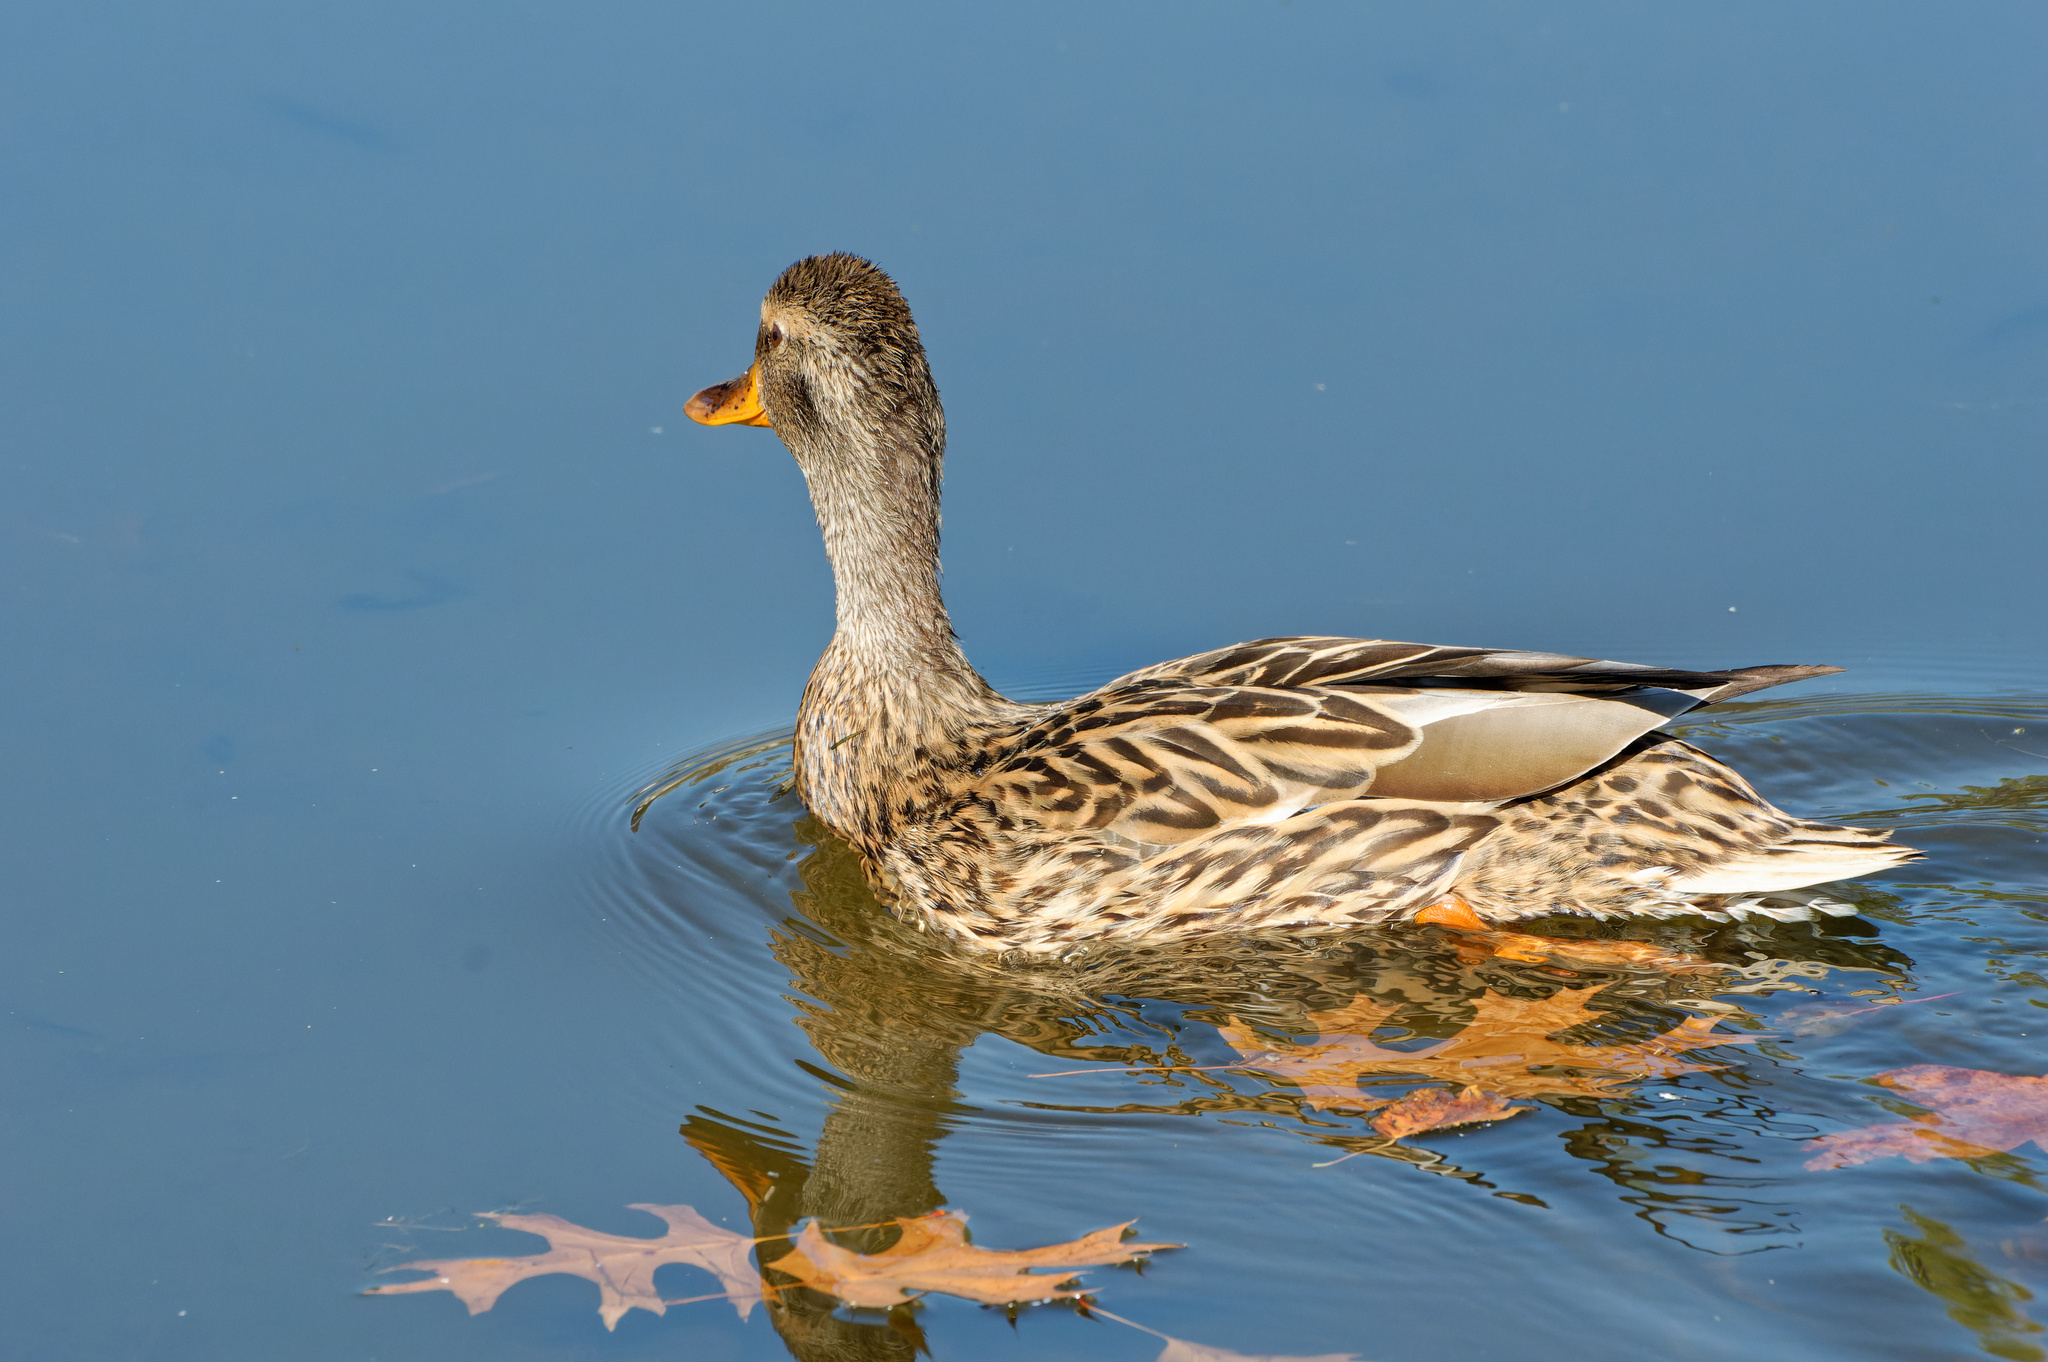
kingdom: Animalia
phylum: Chordata
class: Aves
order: Anseriformes
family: Anatidae
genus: Anas
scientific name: Anas platyrhynchos
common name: Mallard
